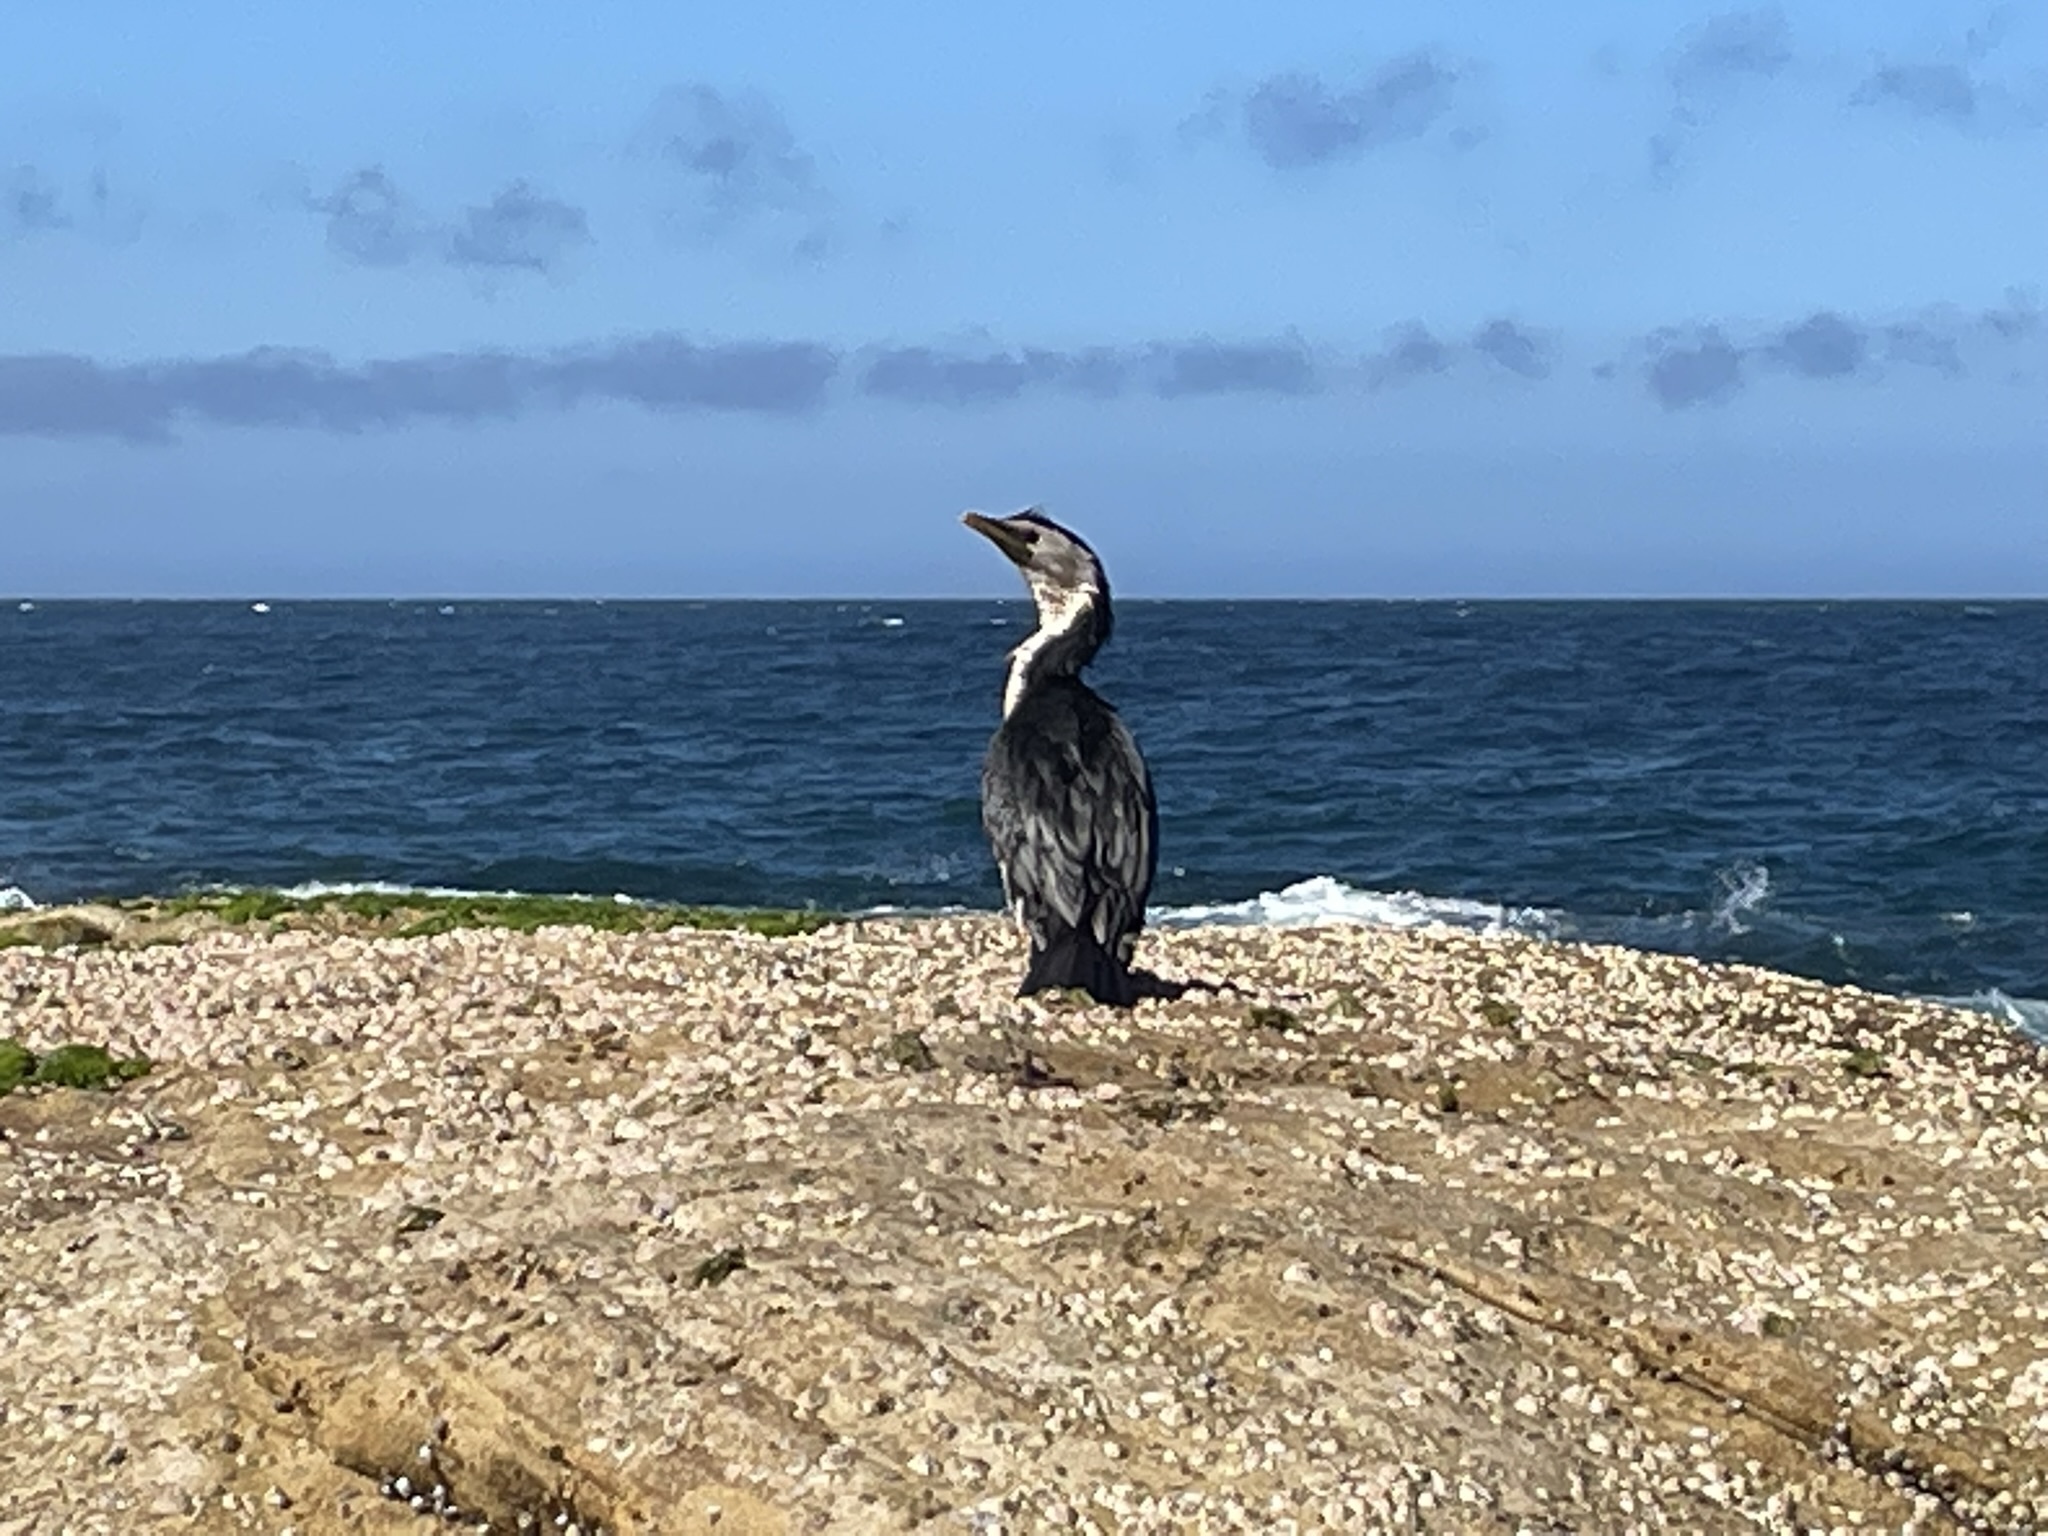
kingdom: Animalia
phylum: Chordata
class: Aves
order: Suliformes
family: Phalacrocoracidae
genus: Microcarbo
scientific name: Microcarbo melanoleucos
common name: Little pied cormorant
